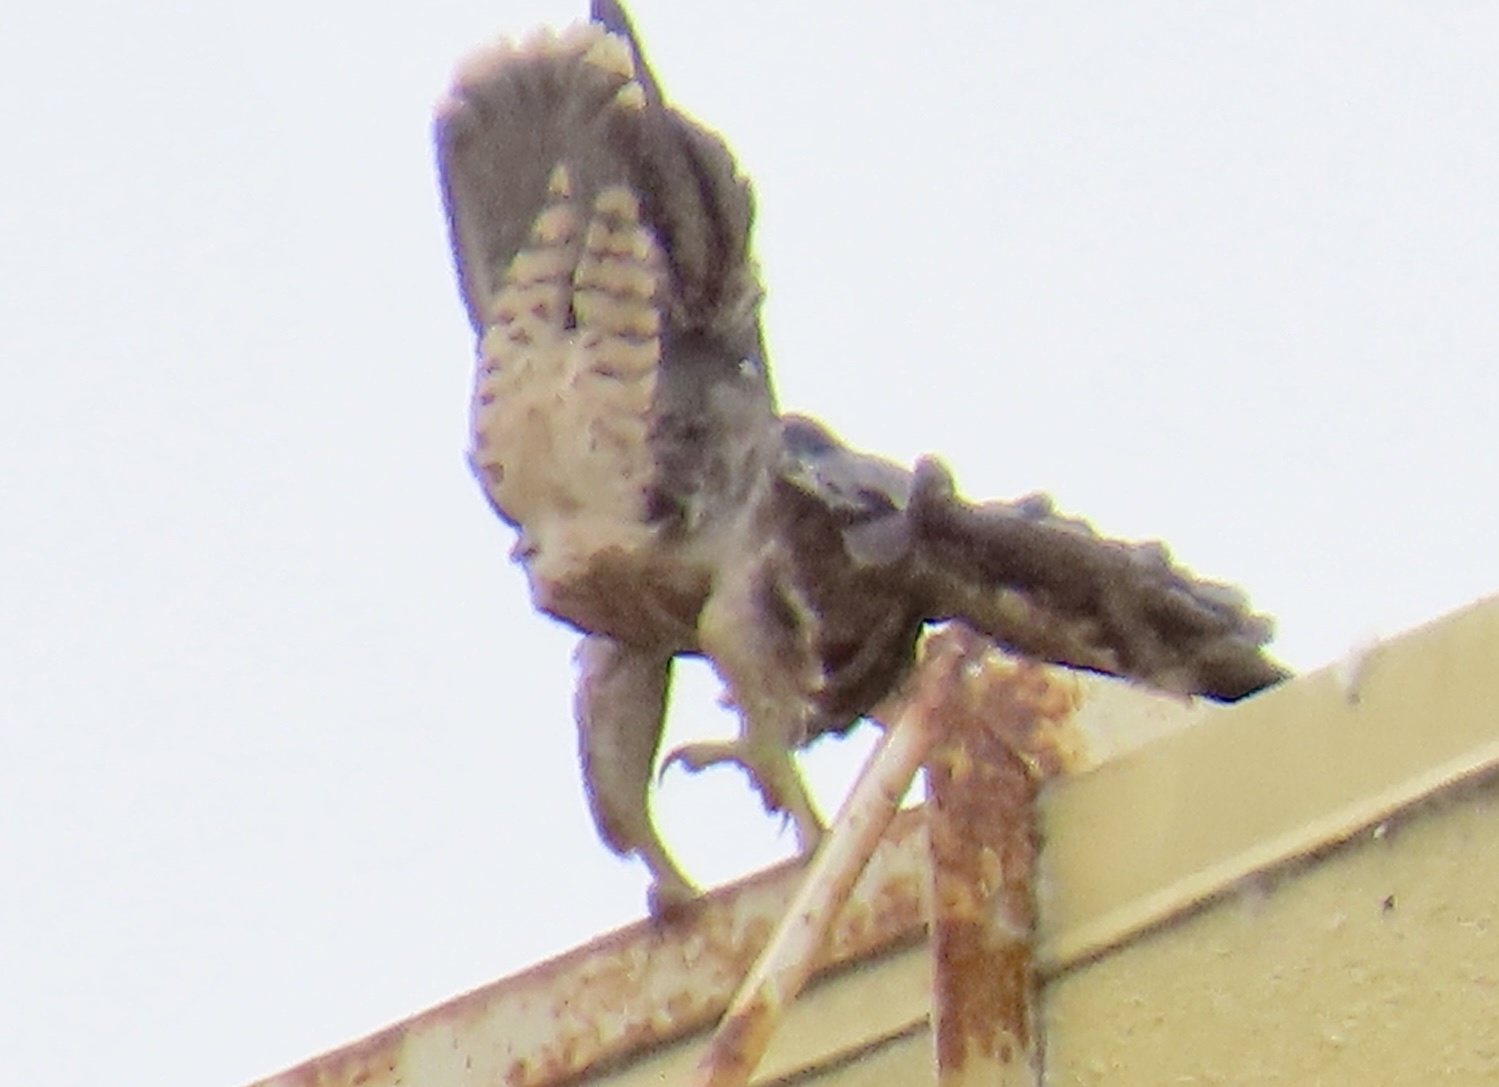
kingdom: Animalia
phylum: Chordata
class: Aves
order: Falconiformes
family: Falconidae
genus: Falco
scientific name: Falco peregrinus
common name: Peregrine falcon
